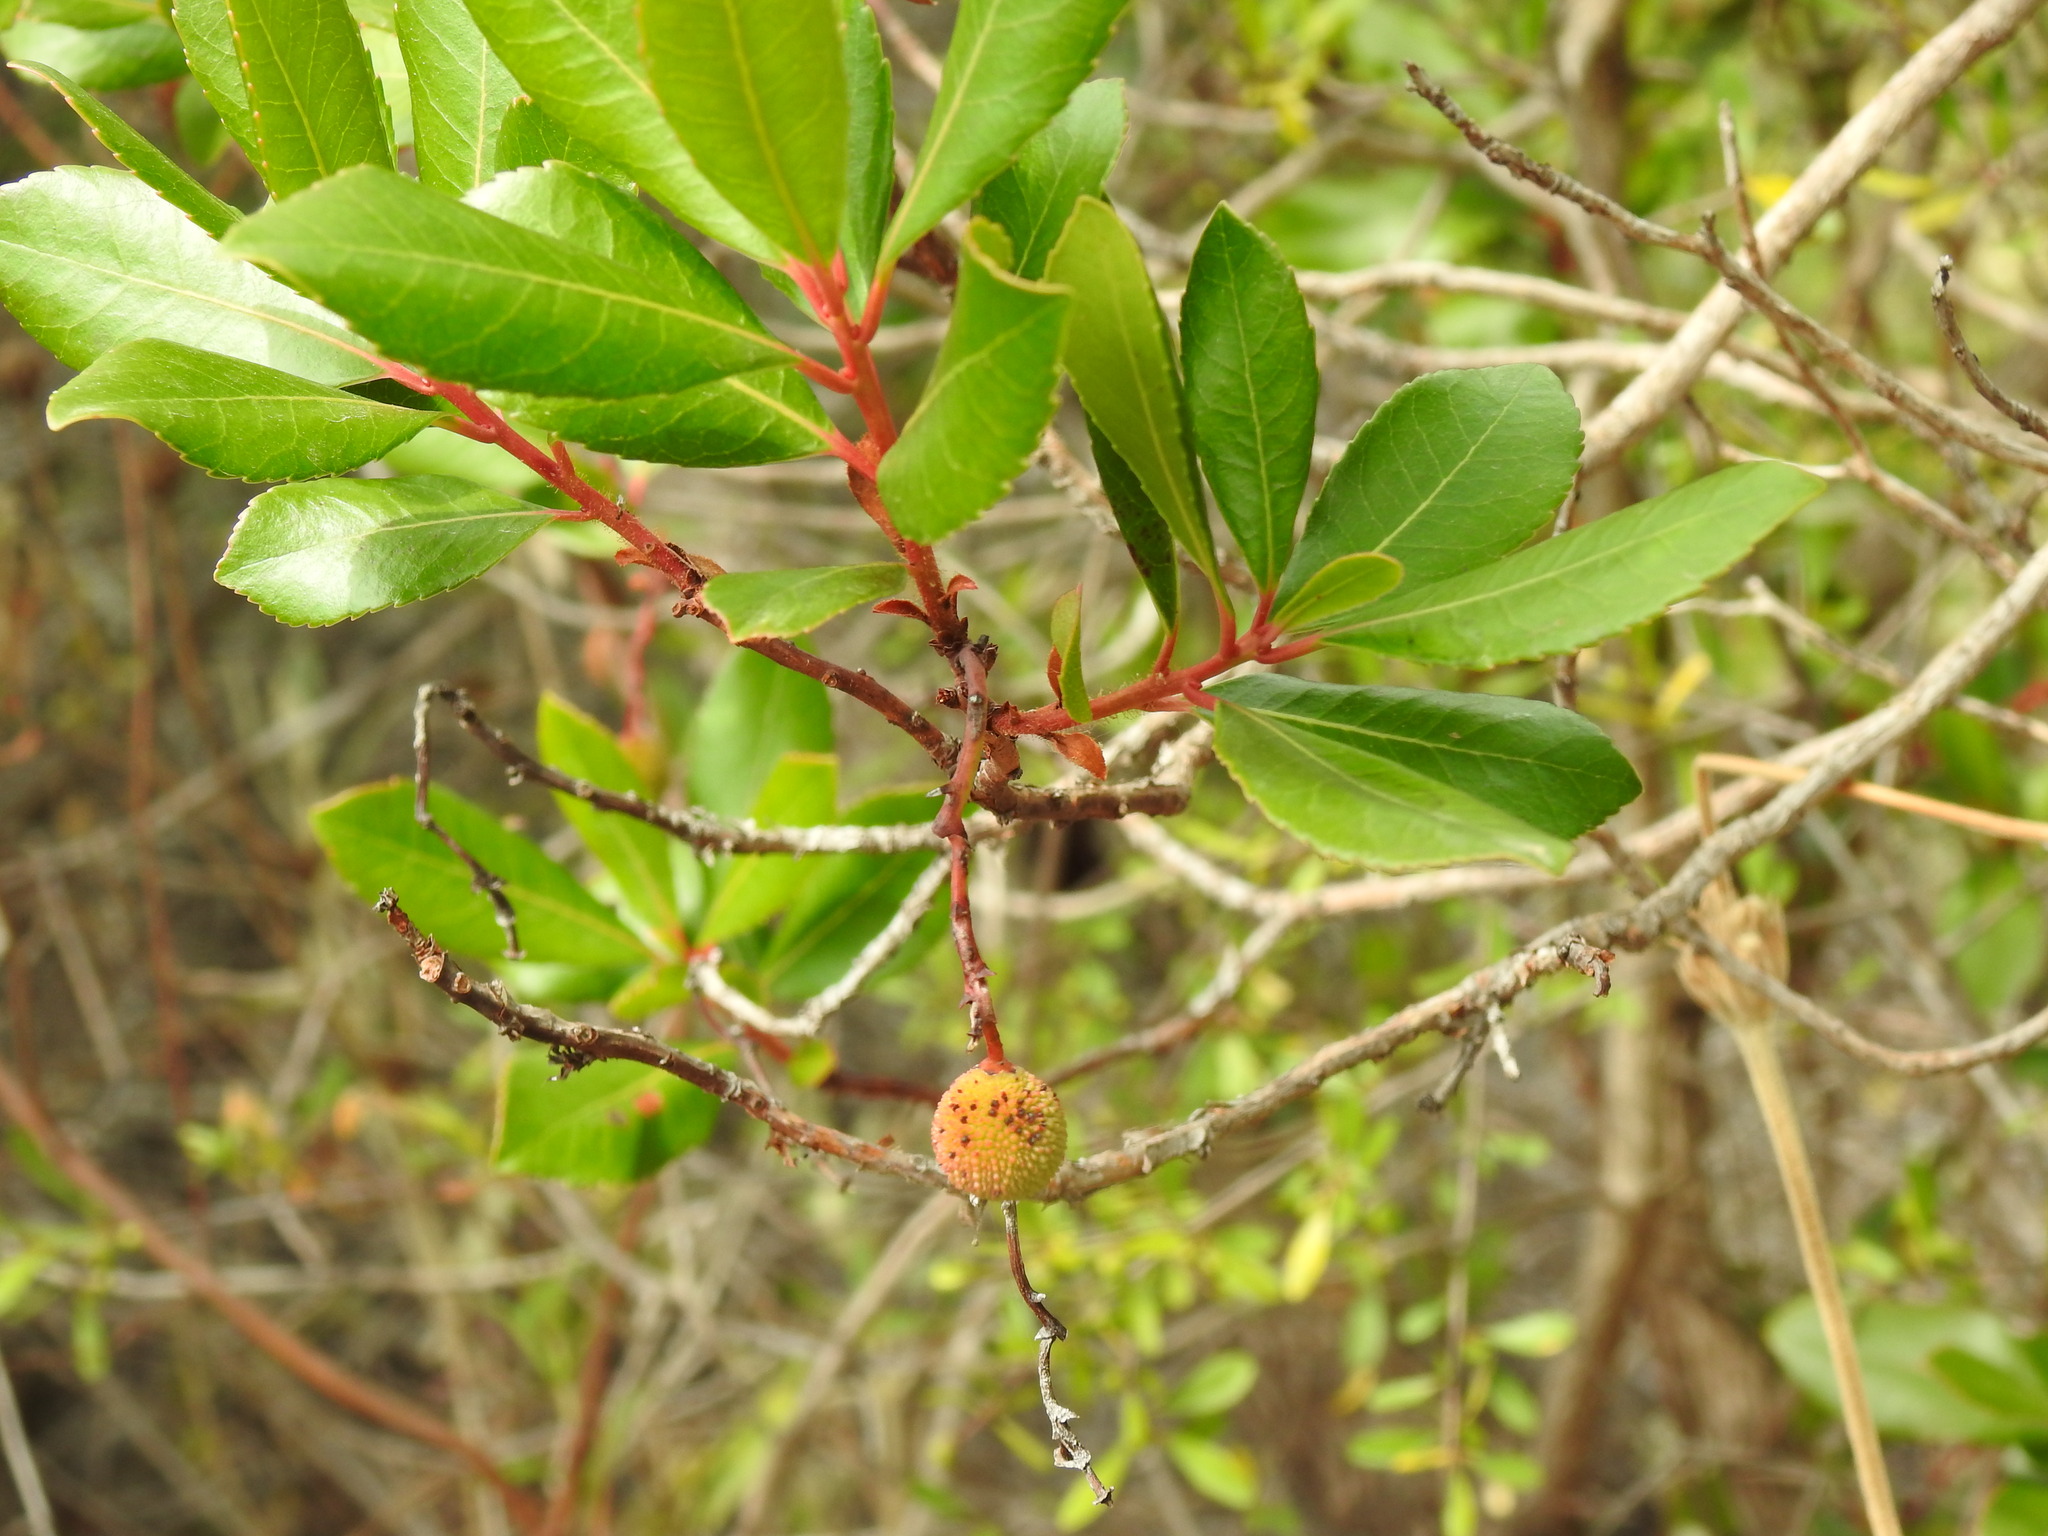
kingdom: Plantae
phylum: Tracheophyta
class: Magnoliopsida
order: Ericales
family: Ericaceae
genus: Arbutus
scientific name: Arbutus unedo
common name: Strawberry-tree
